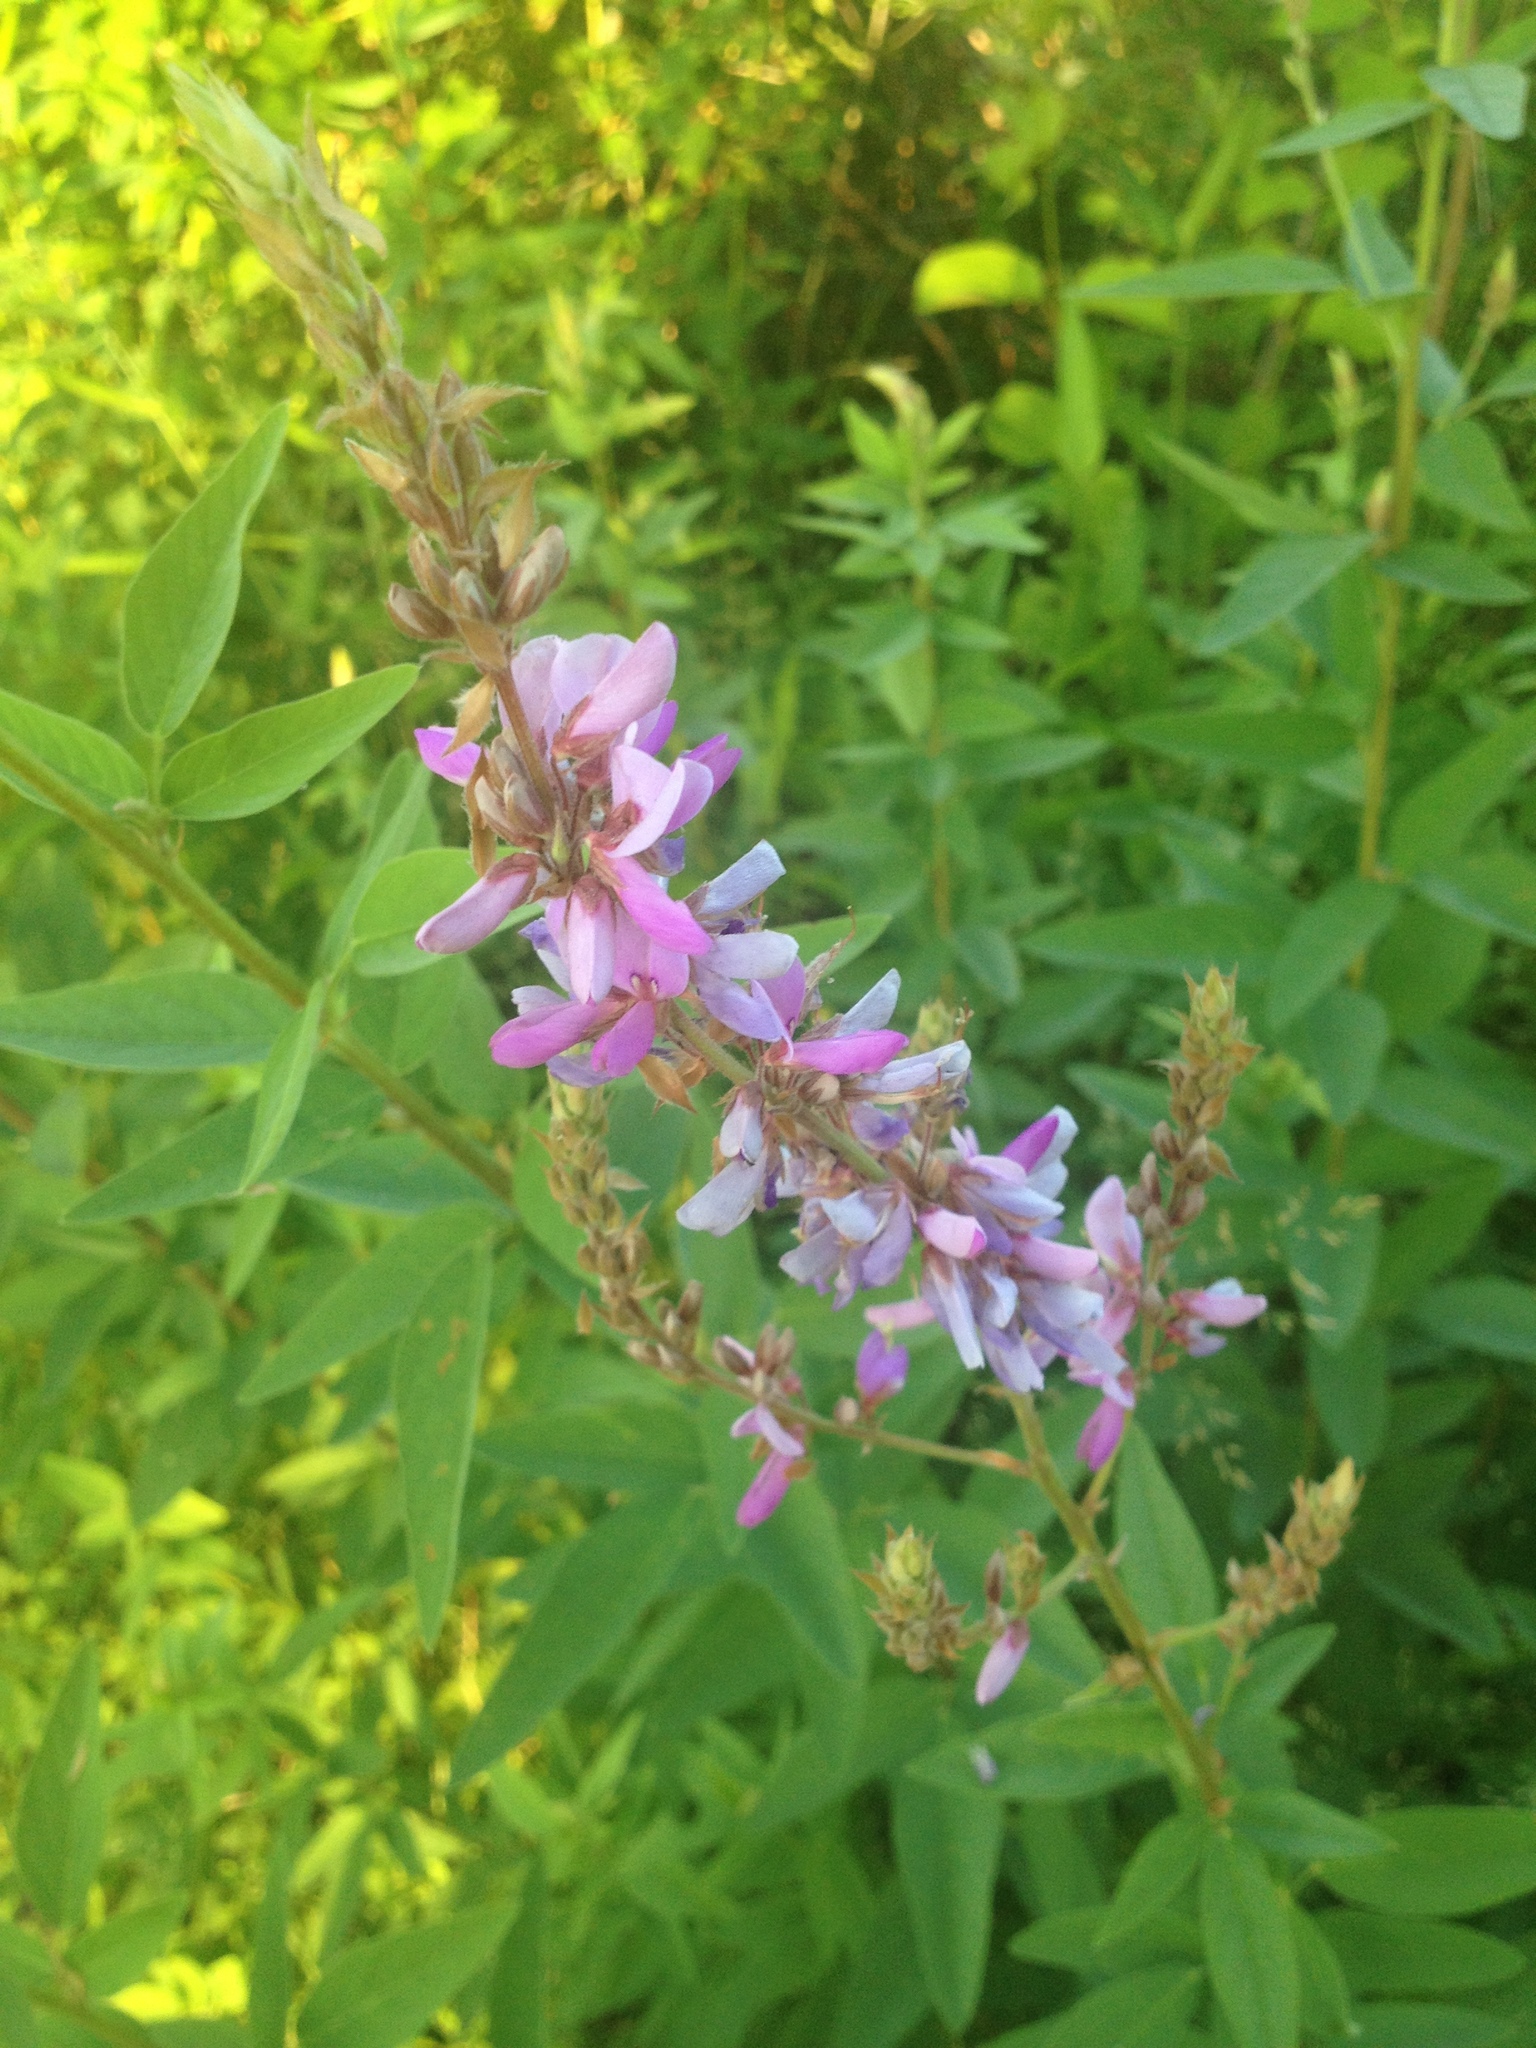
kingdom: Plantae
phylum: Tracheophyta
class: Magnoliopsida
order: Fabales
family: Fabaceae
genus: Desmodium
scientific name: Desmodium canadense
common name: Canada tick-trefoil
